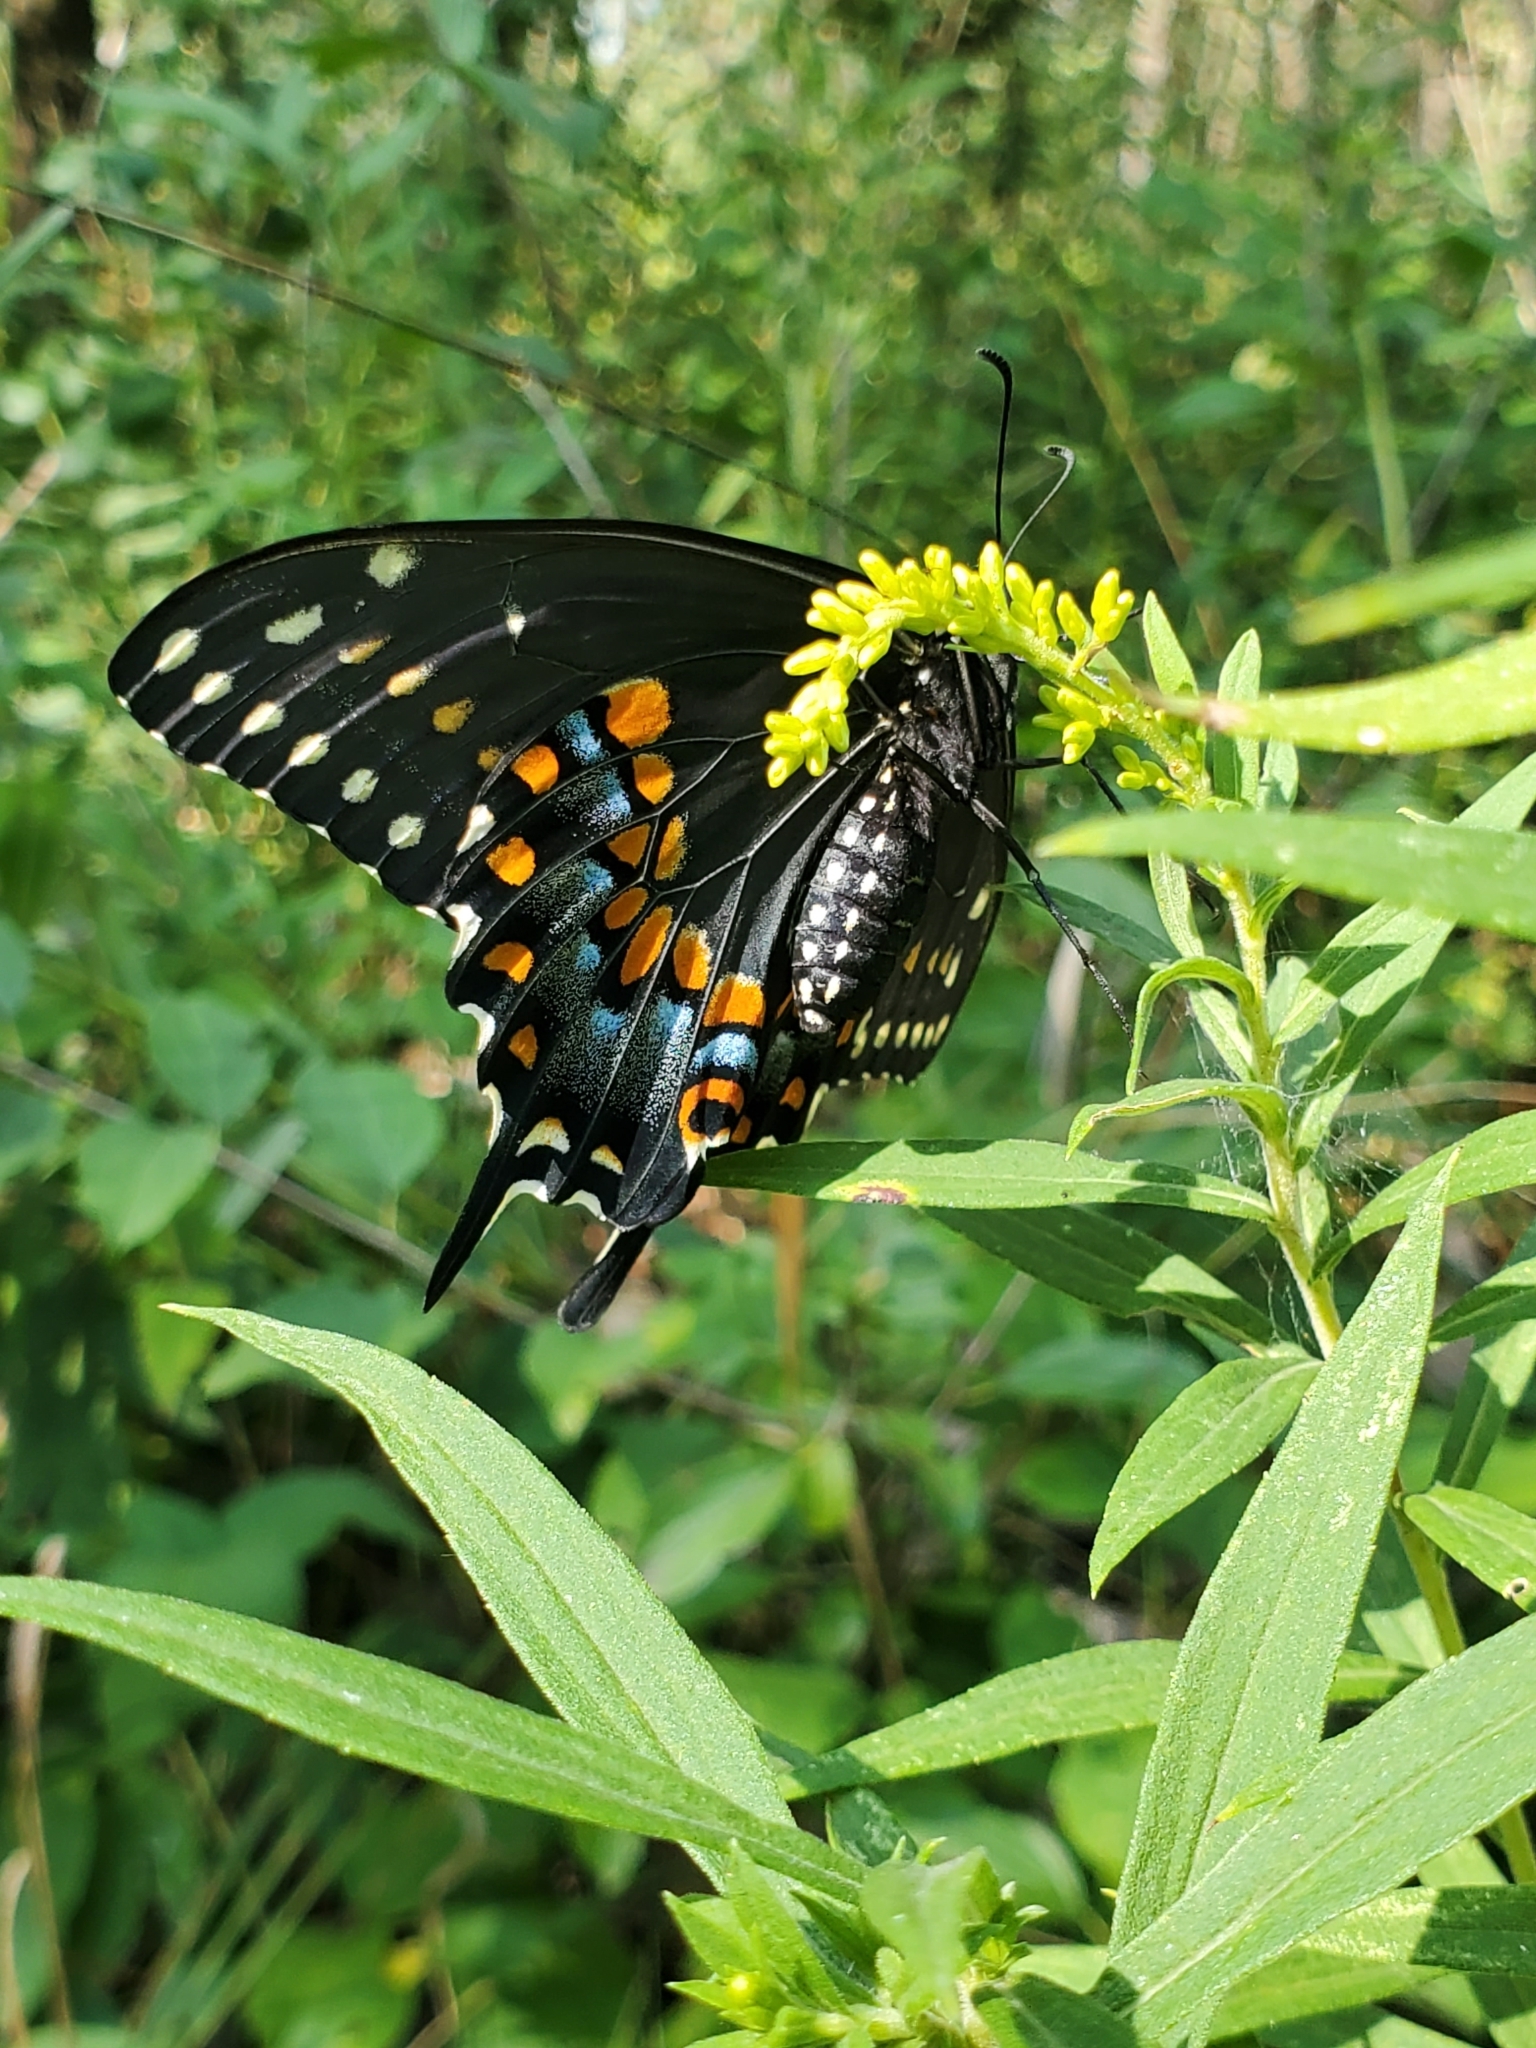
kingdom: Animalia
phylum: Arthropoda
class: Insecta
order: Lepidoptera
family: Papilionidae
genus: Papilio
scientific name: Papilio polyxenes
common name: Black swallowtail
